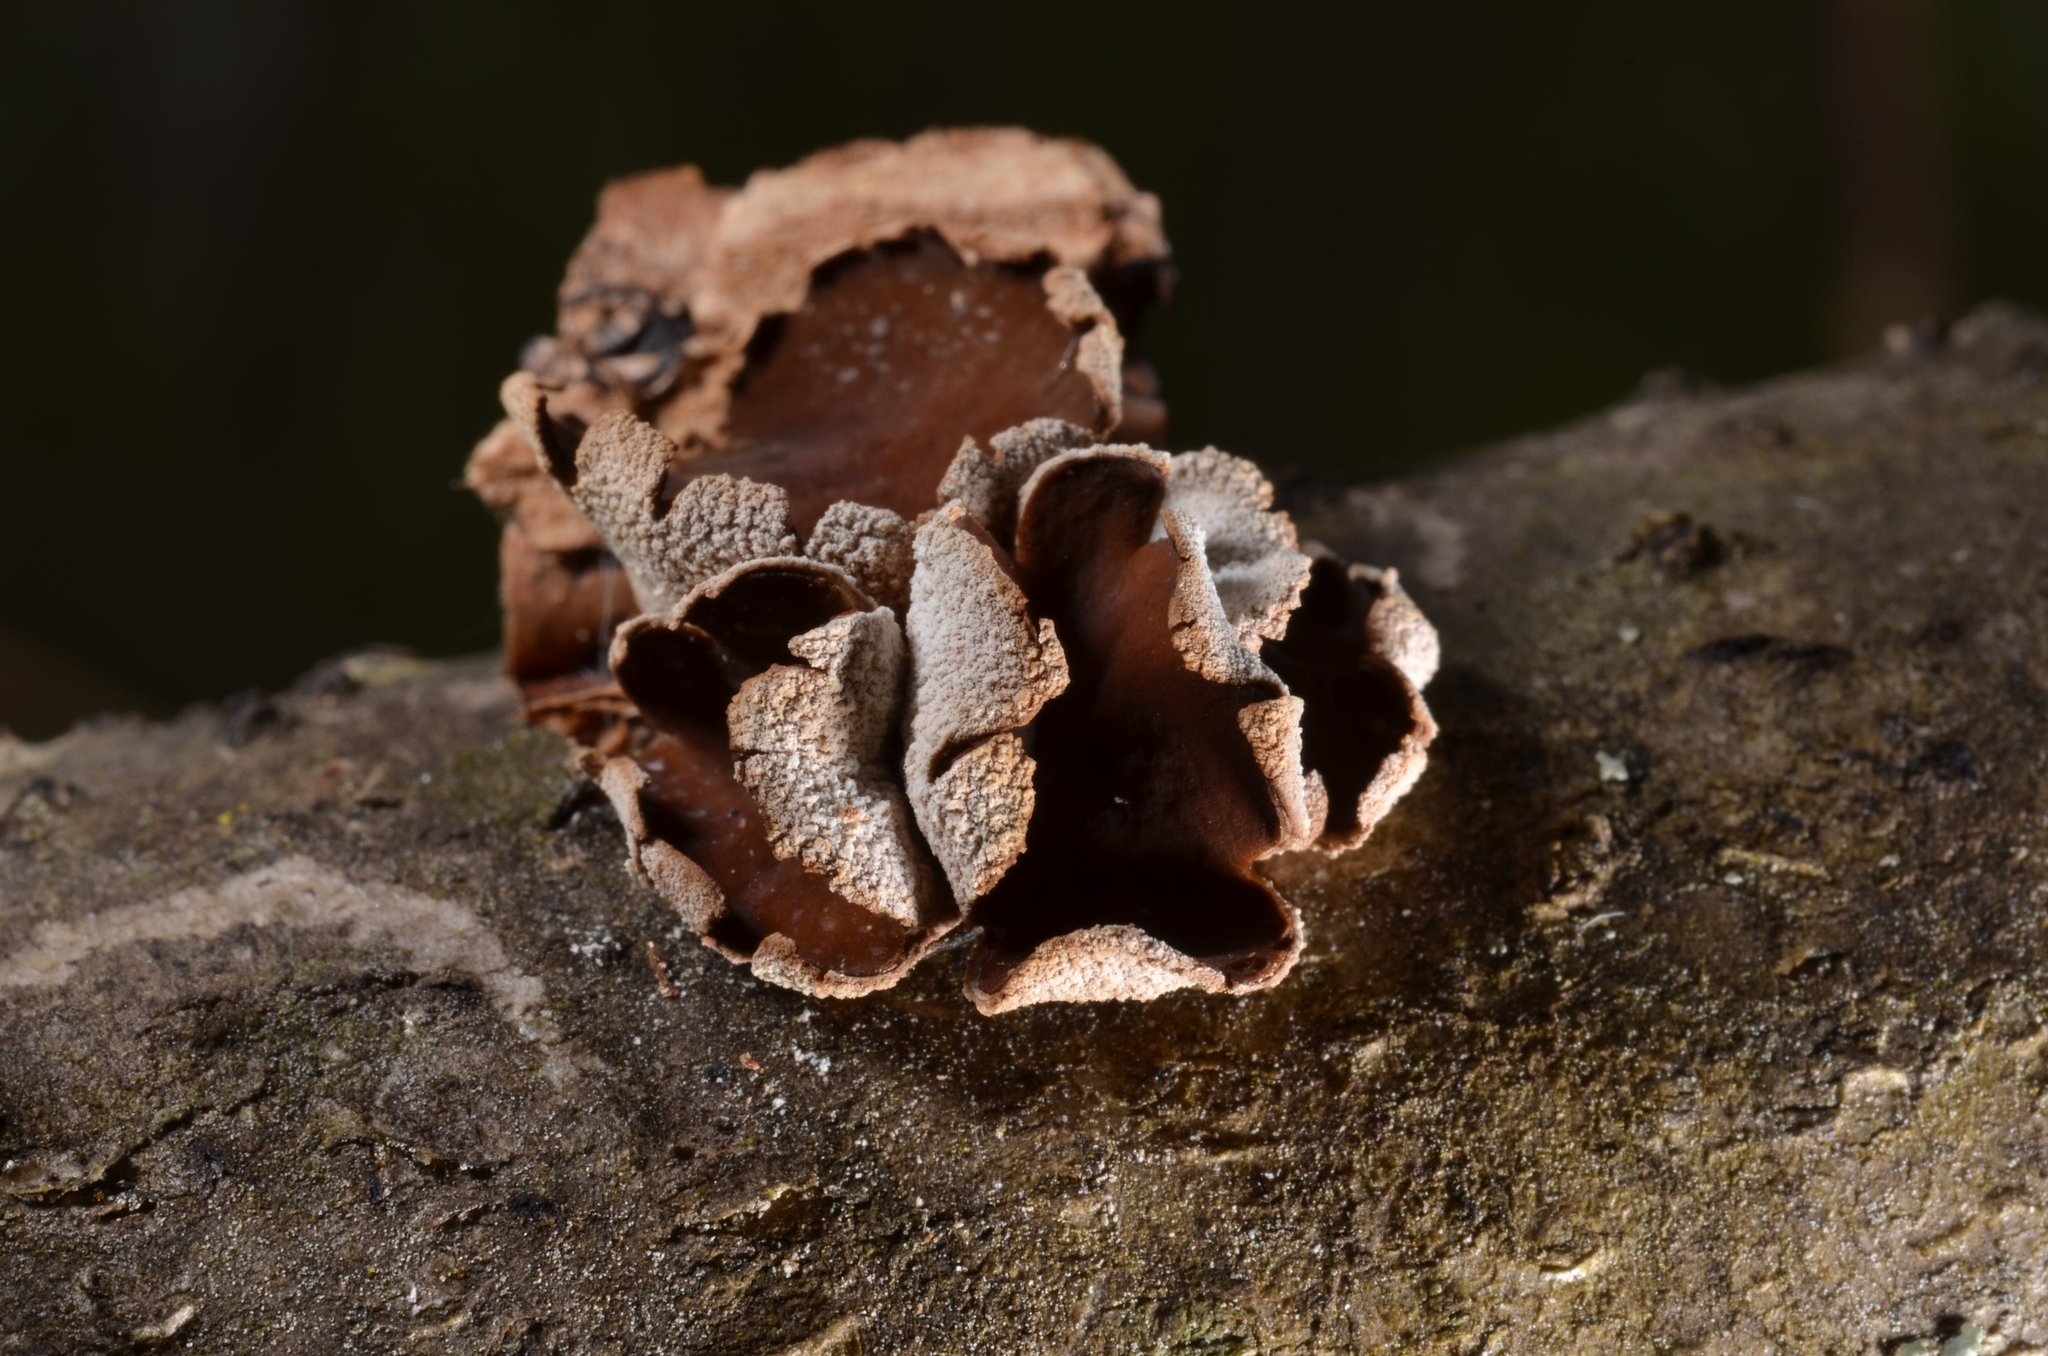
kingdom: Fungi
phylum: Ascomycota
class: Leotiomycetes
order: Helotiales
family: Cenangiaceae
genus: Encoelia
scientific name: Encoelia furfuracea
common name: Spring hazelcup
